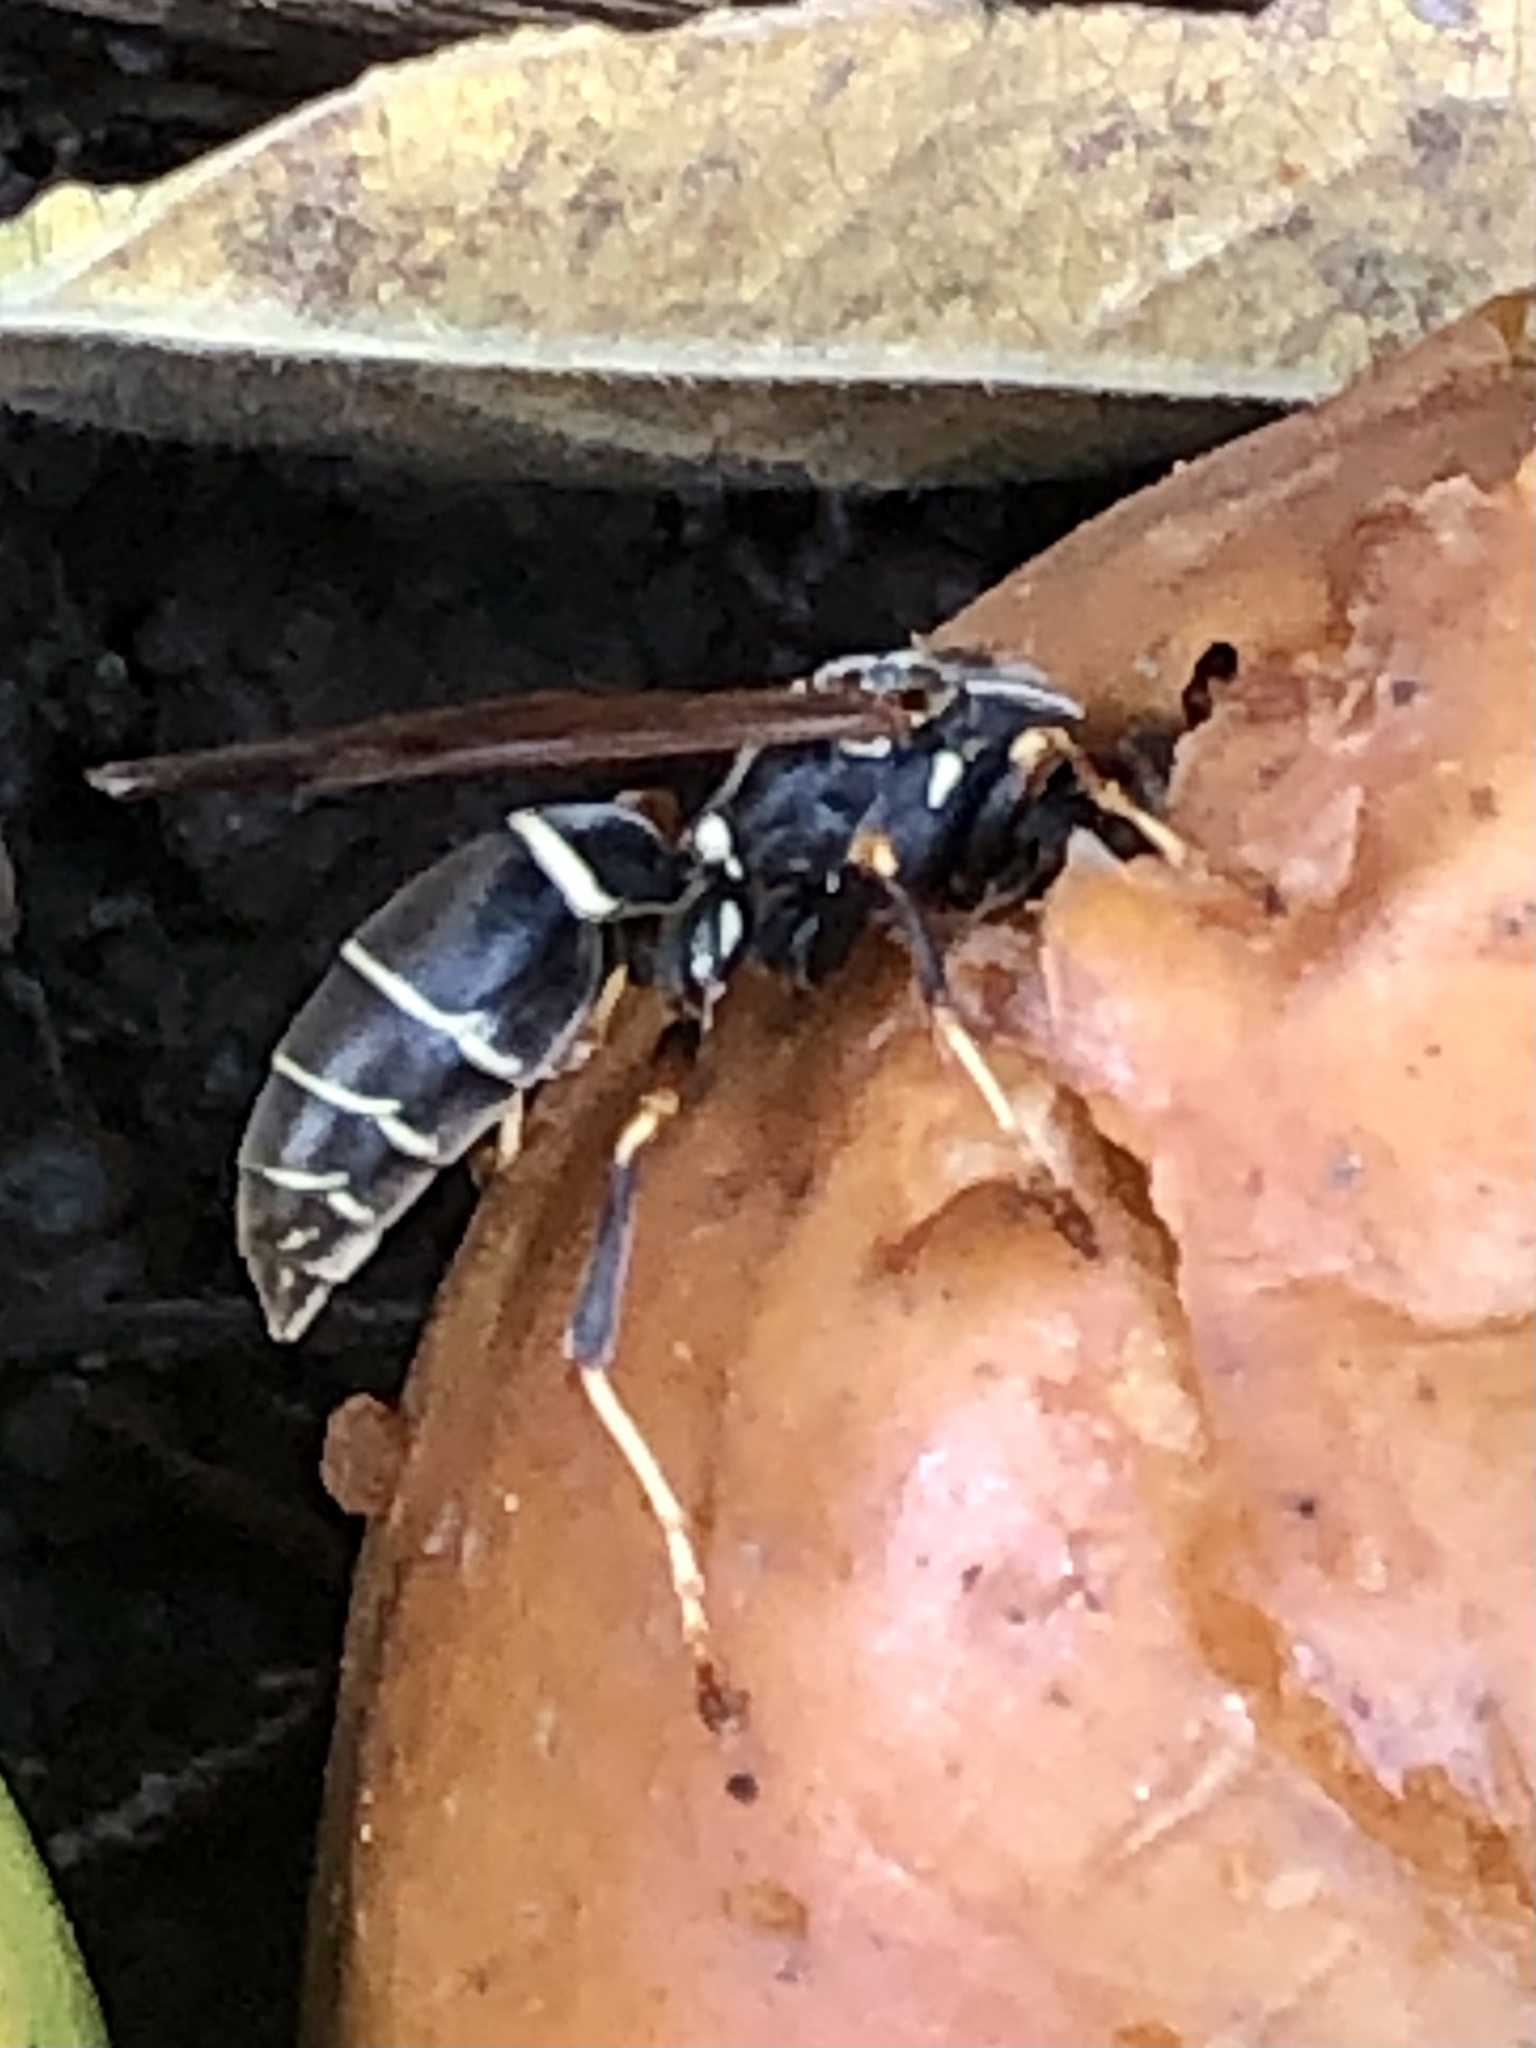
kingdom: Animalia
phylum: Arthropoda
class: Insecta
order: Hymenoptera
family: Eumenidae
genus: Polistes
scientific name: Polistes fuscatus
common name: Dark paper wasp
